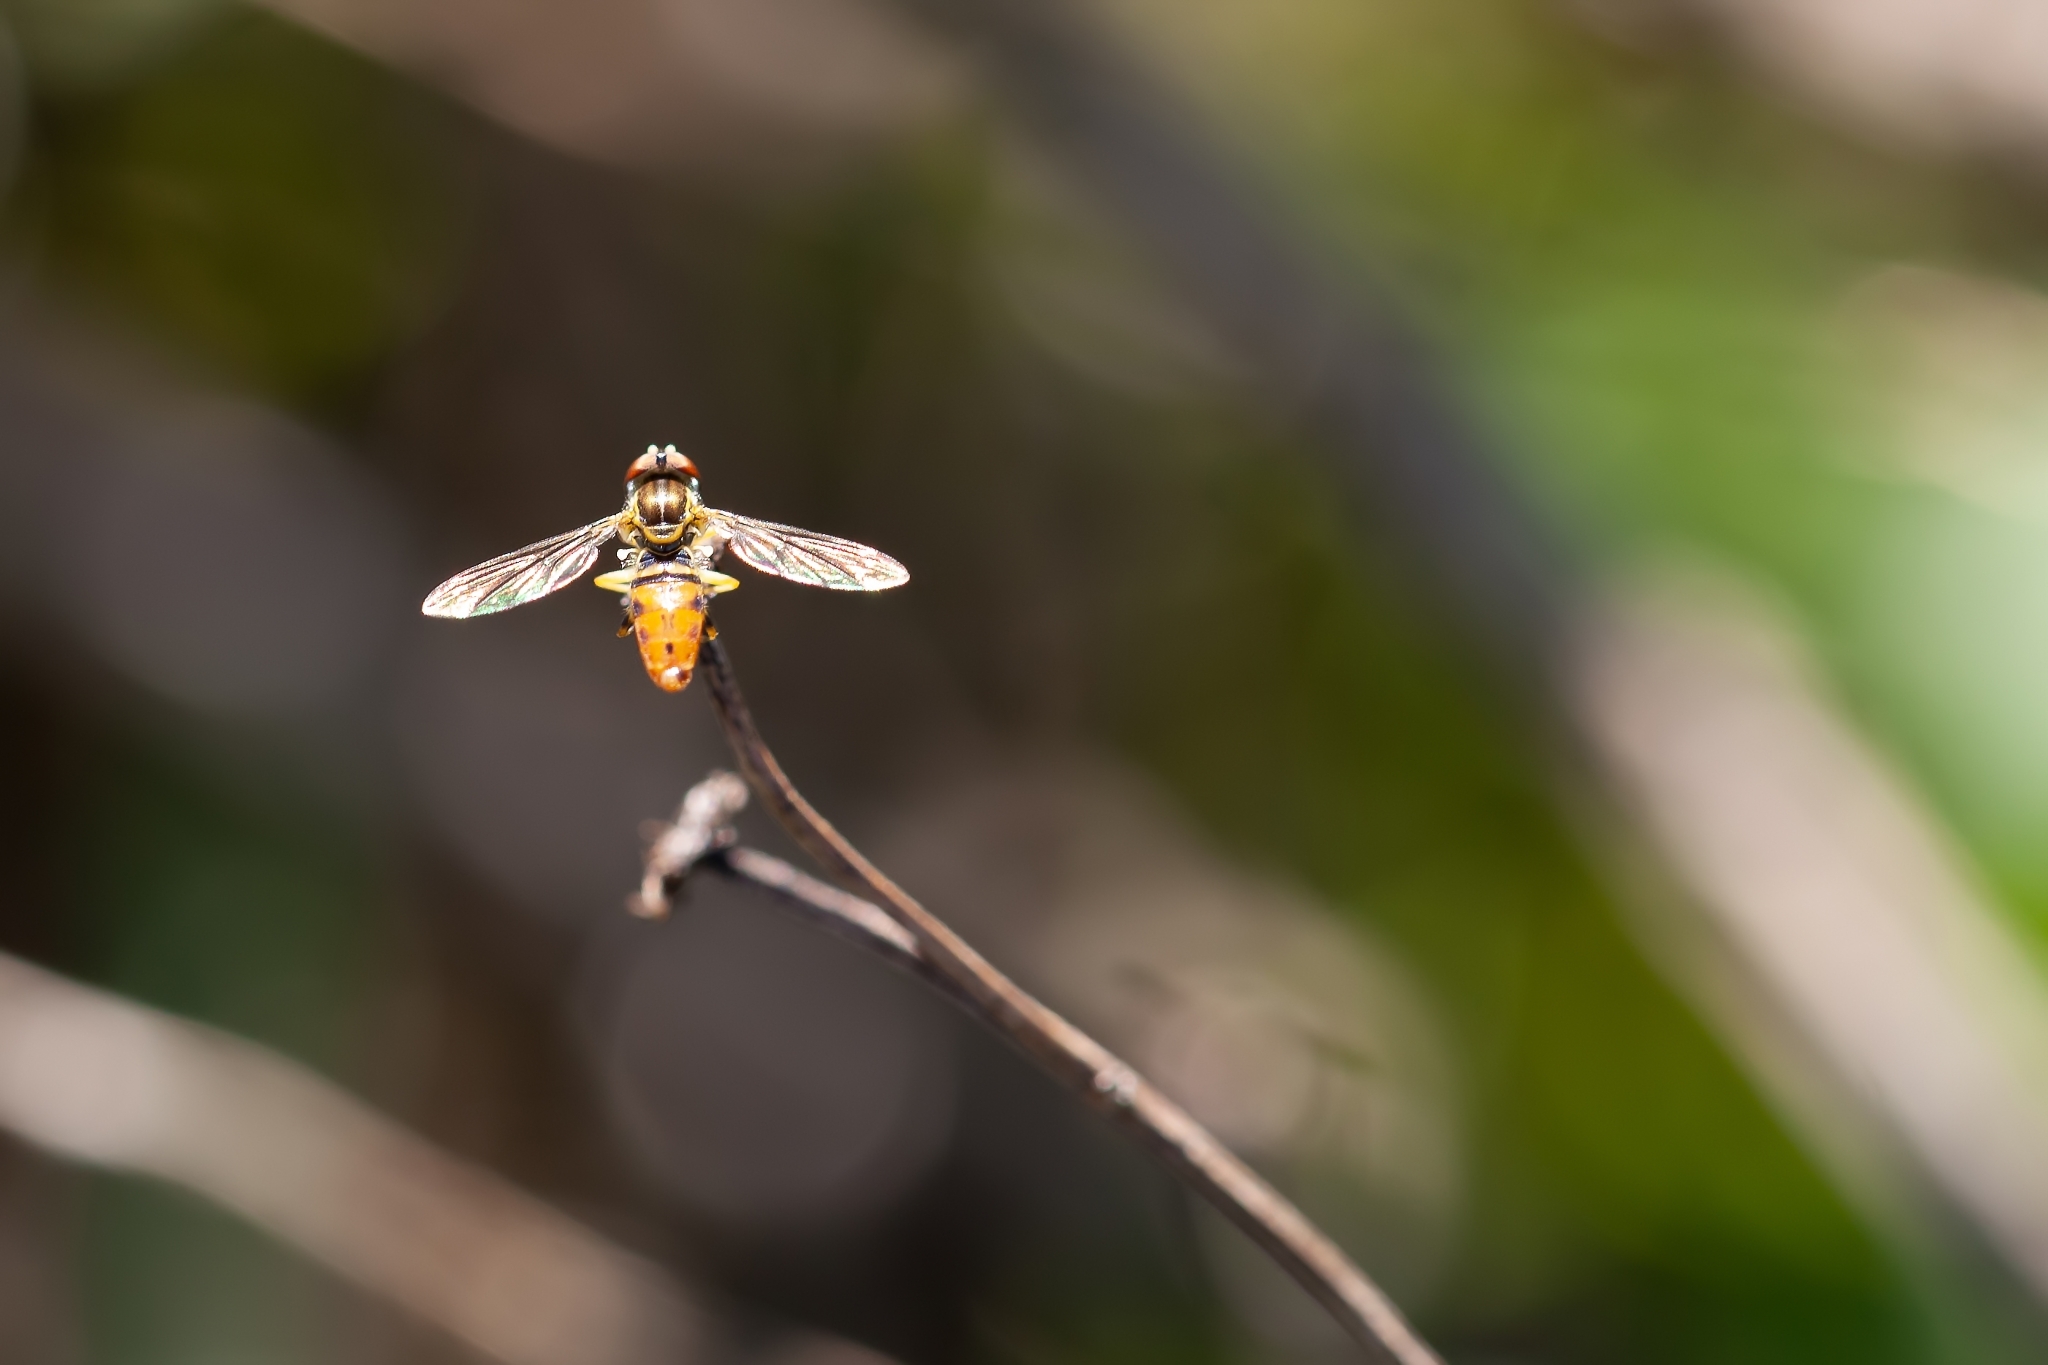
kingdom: Animalia
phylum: Arthropoda
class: Insecta
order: Diptera
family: Syrphidae
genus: Toxomerus
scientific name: Toxomerus floralis
